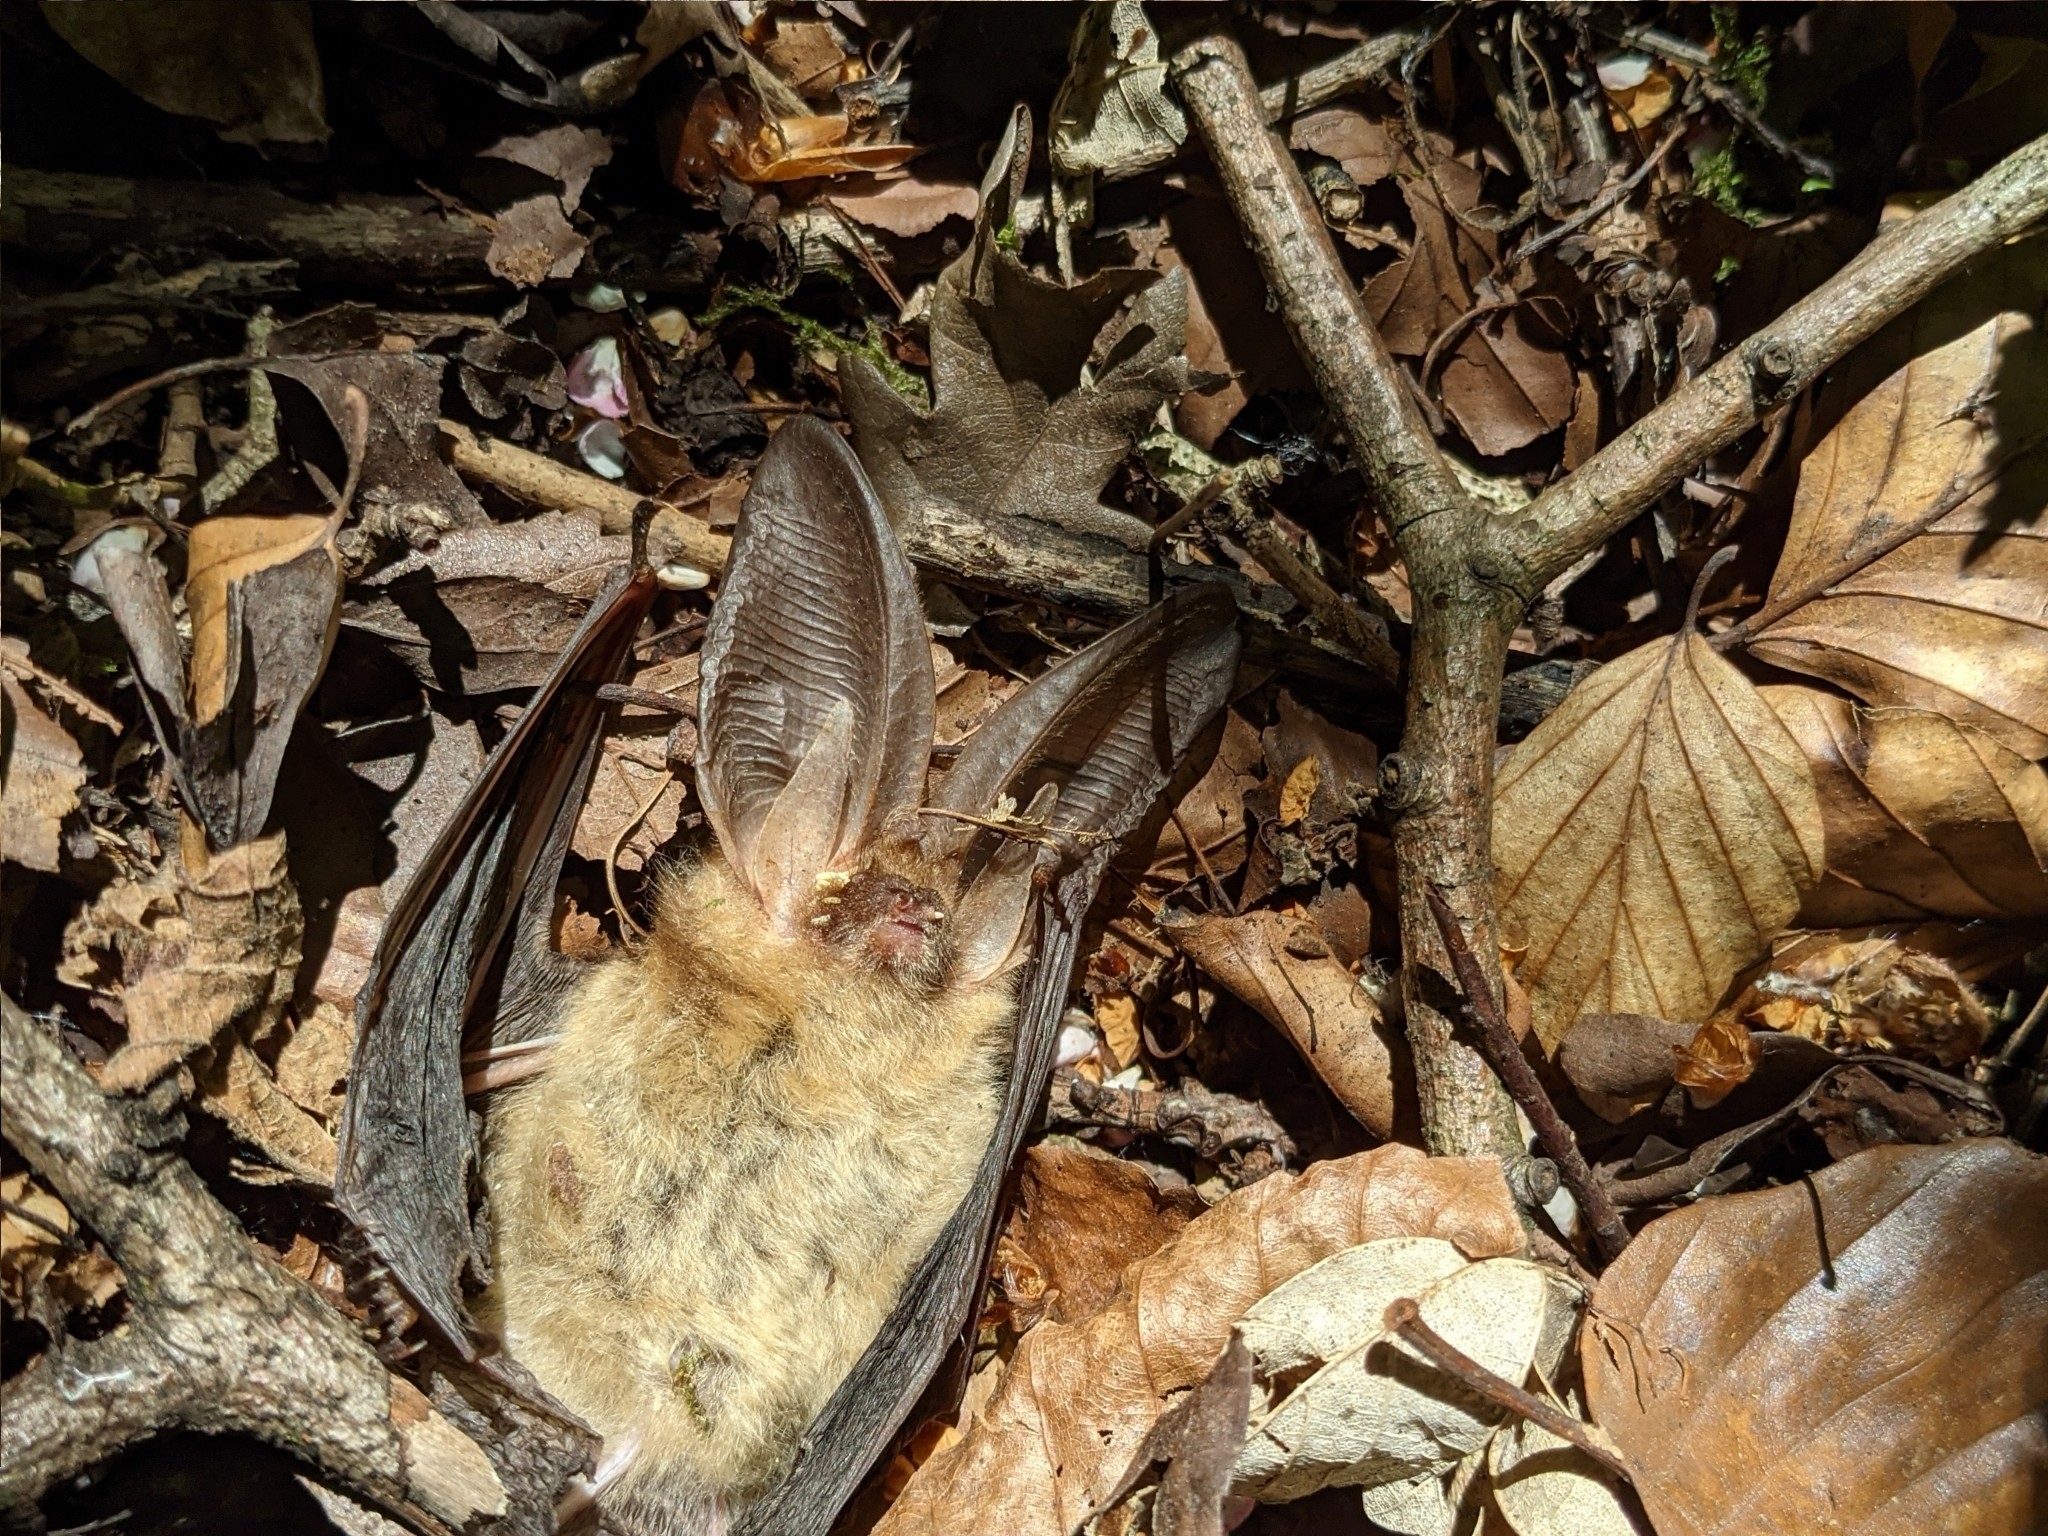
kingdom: Animalia
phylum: Chordata
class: Mammalia
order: Chiroptera
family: Vespertilionidae
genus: Plecotus
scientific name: Plecotus auritus
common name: Brown long-eared bat
